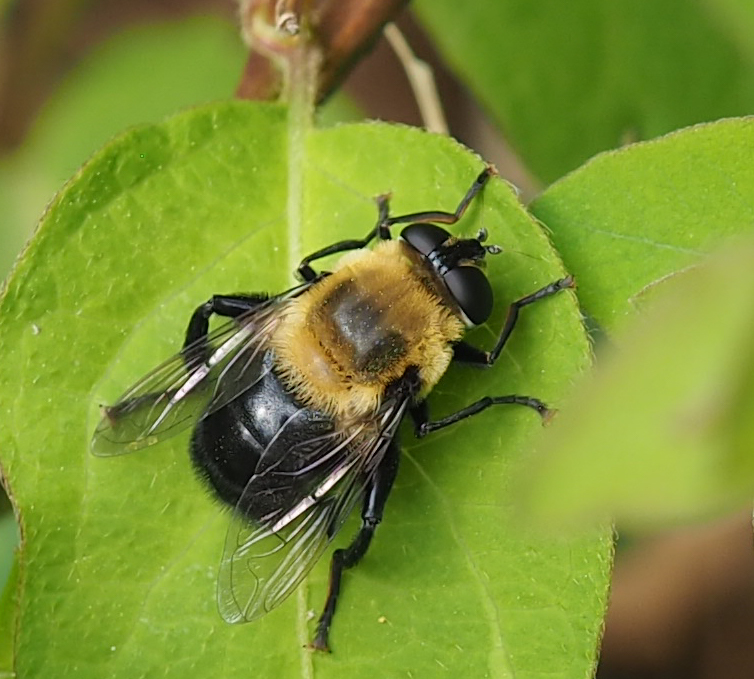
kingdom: Animalia
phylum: Arthropoda
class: Insecta
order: Diptera
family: Syrphidae
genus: Imatisma
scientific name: Imatisma bautias
